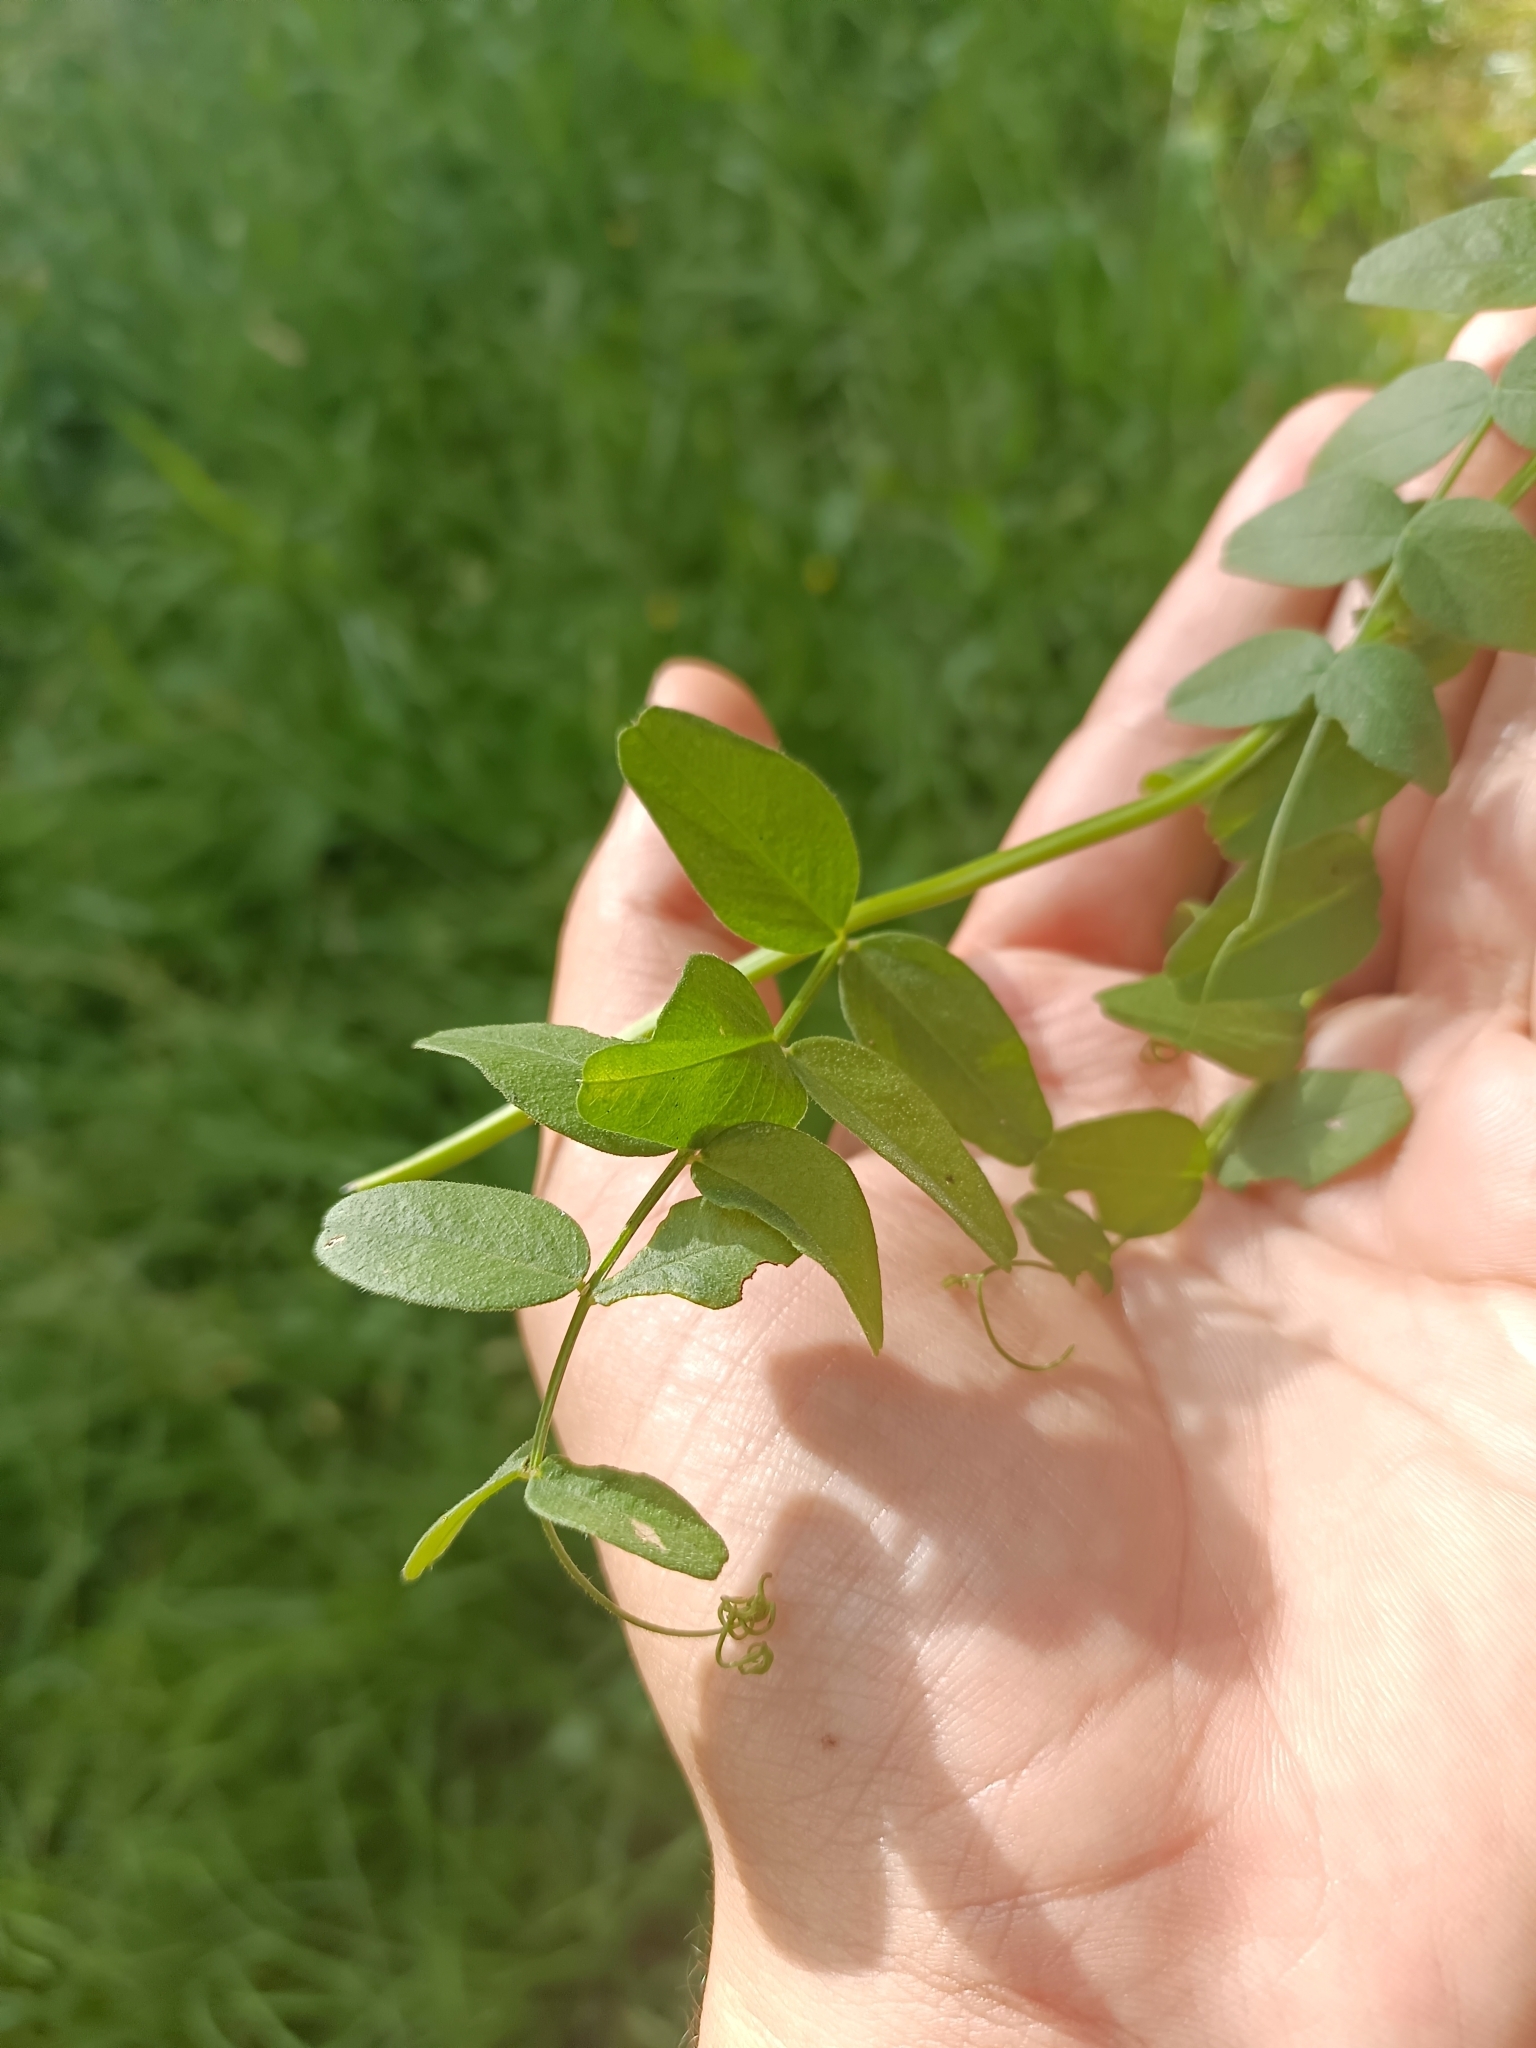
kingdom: Plantae
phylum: Tracheophyta
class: Magnoliopsida
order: Fabales
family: Fabaceae
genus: Vicia
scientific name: Vicia sepium
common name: Bush vetch
